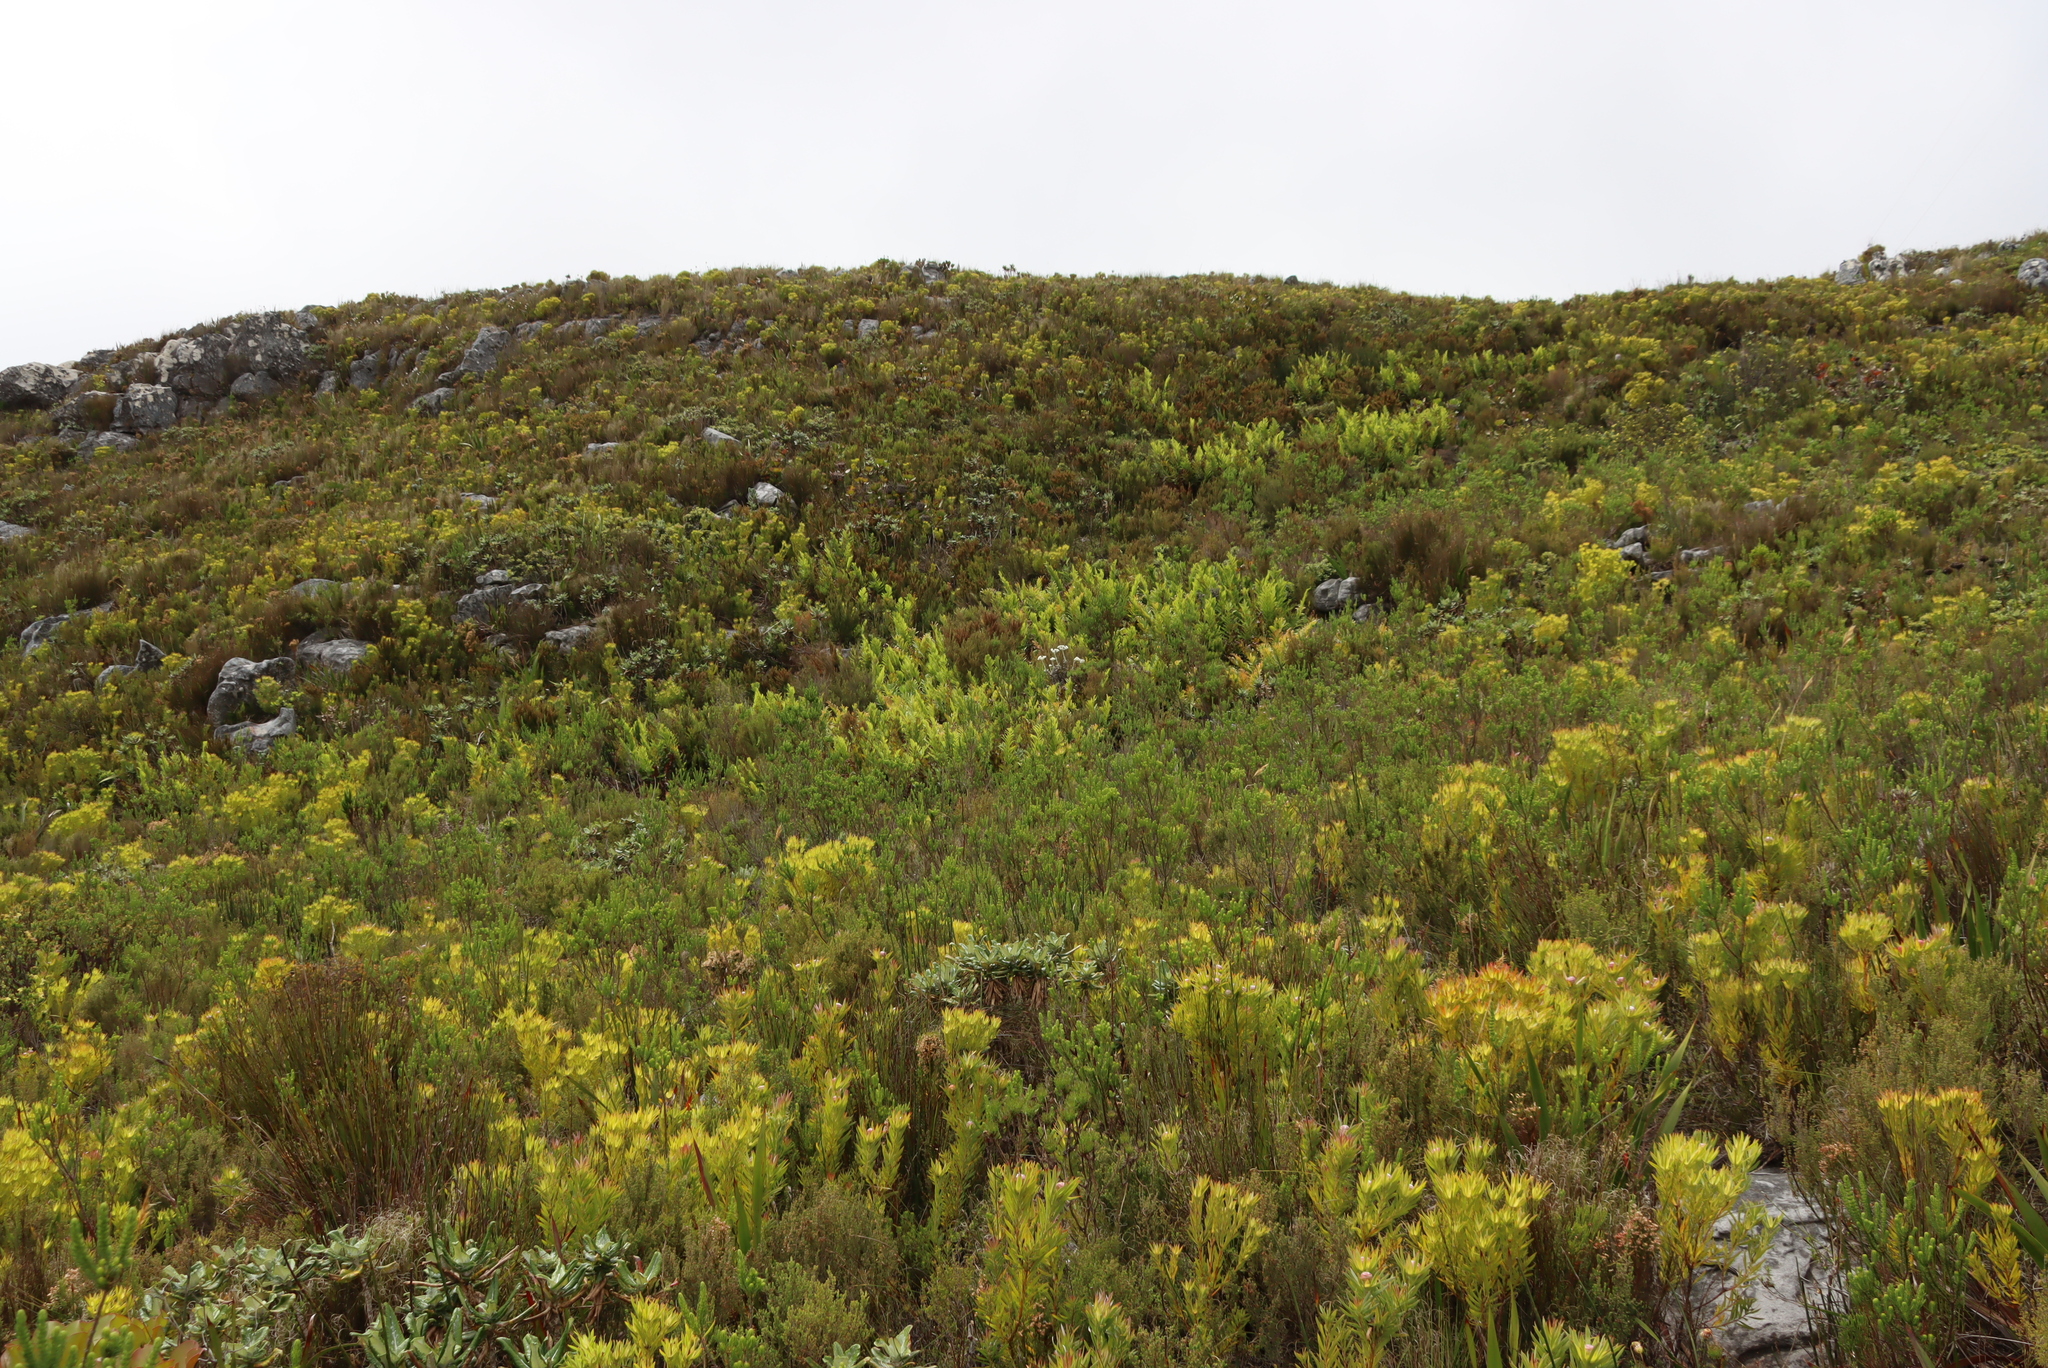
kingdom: Plantae
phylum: Tracheophyta
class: Polypodiopsida
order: Osmundales
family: Osmundaceae
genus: Todea
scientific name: Todea barbara
